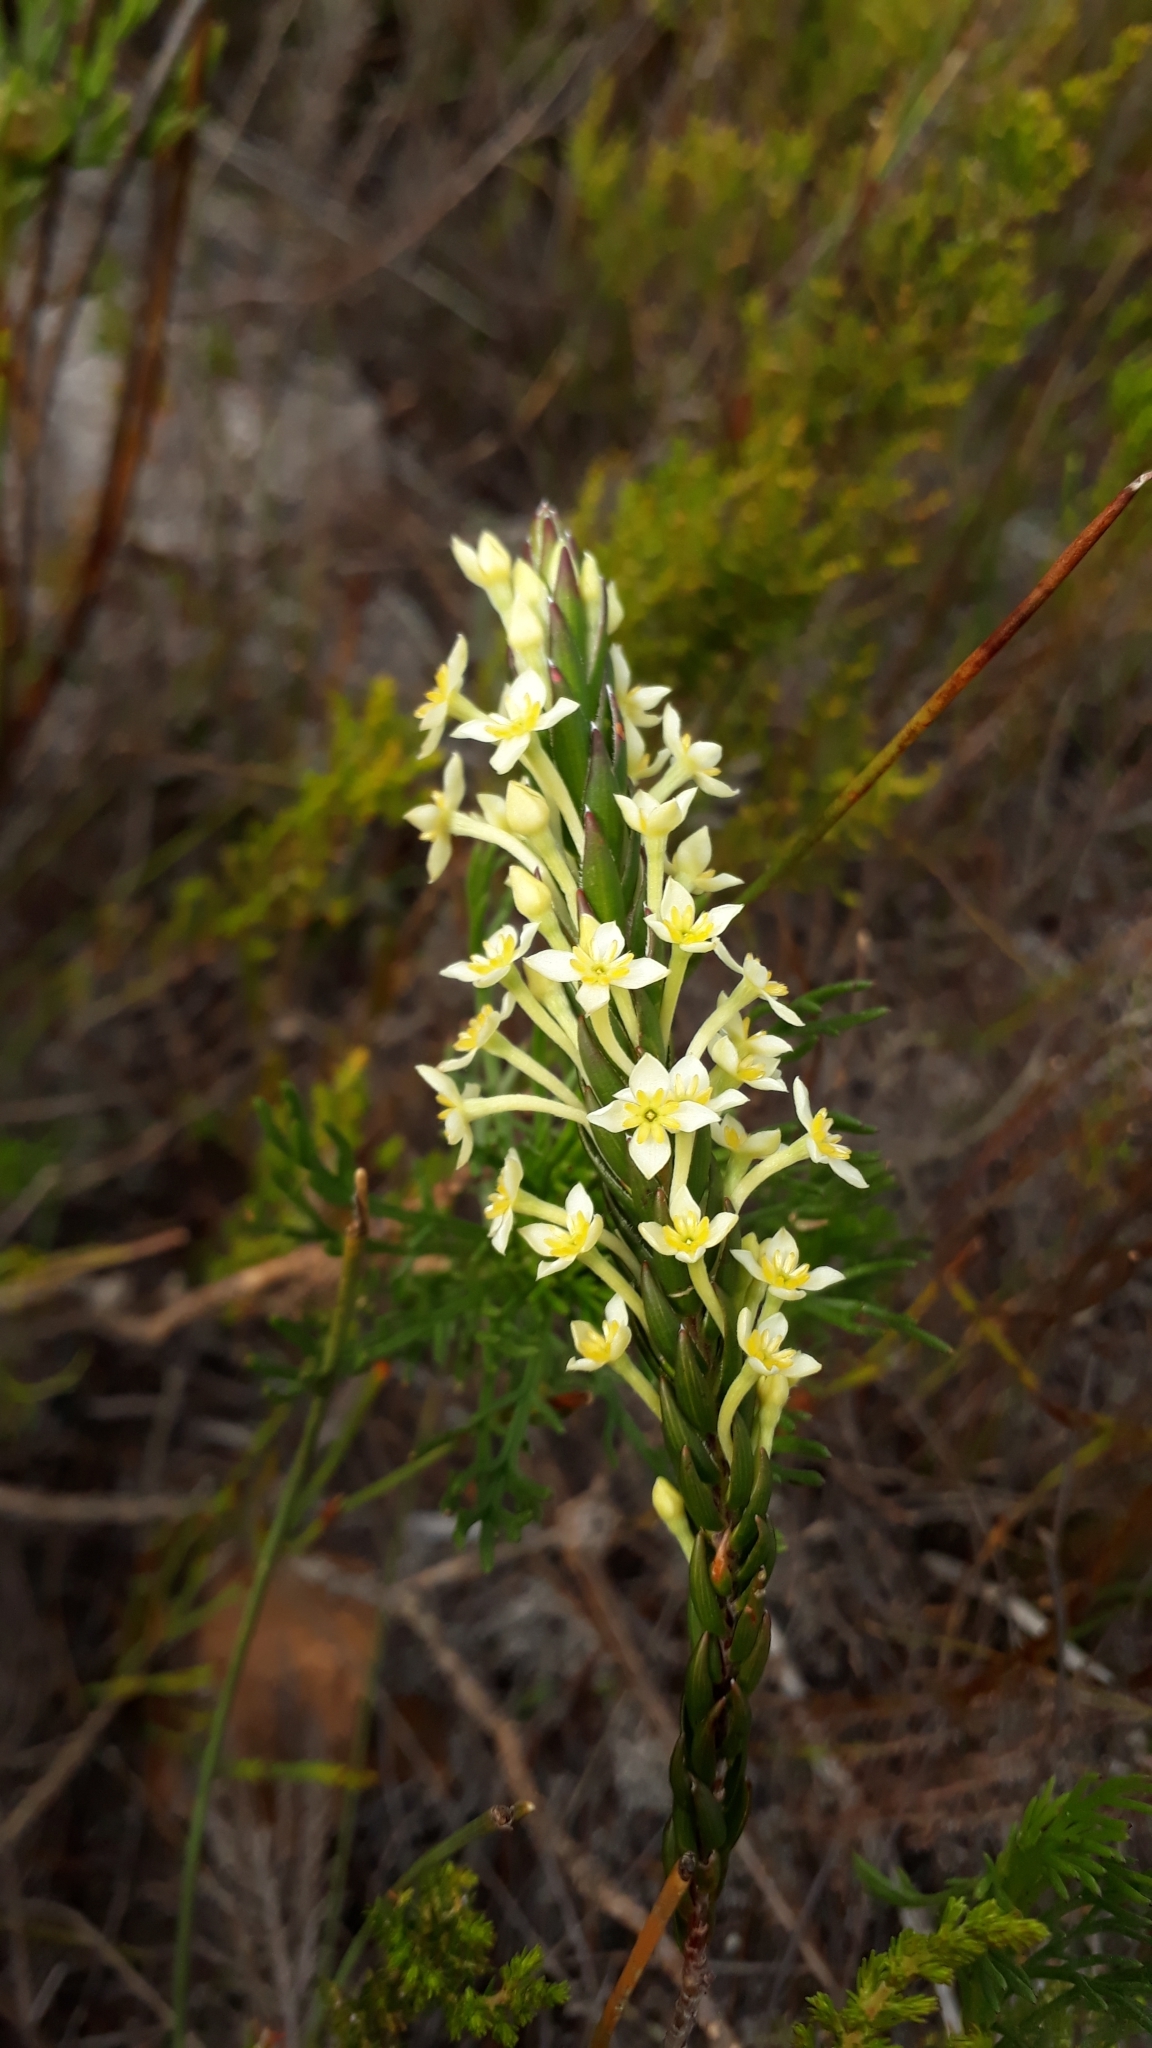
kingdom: Plantae
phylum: Tracheophyta
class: Magnoliopsida
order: Malvales
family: Thymelaeaceae
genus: Struthiola
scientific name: Struthiola ciliata
